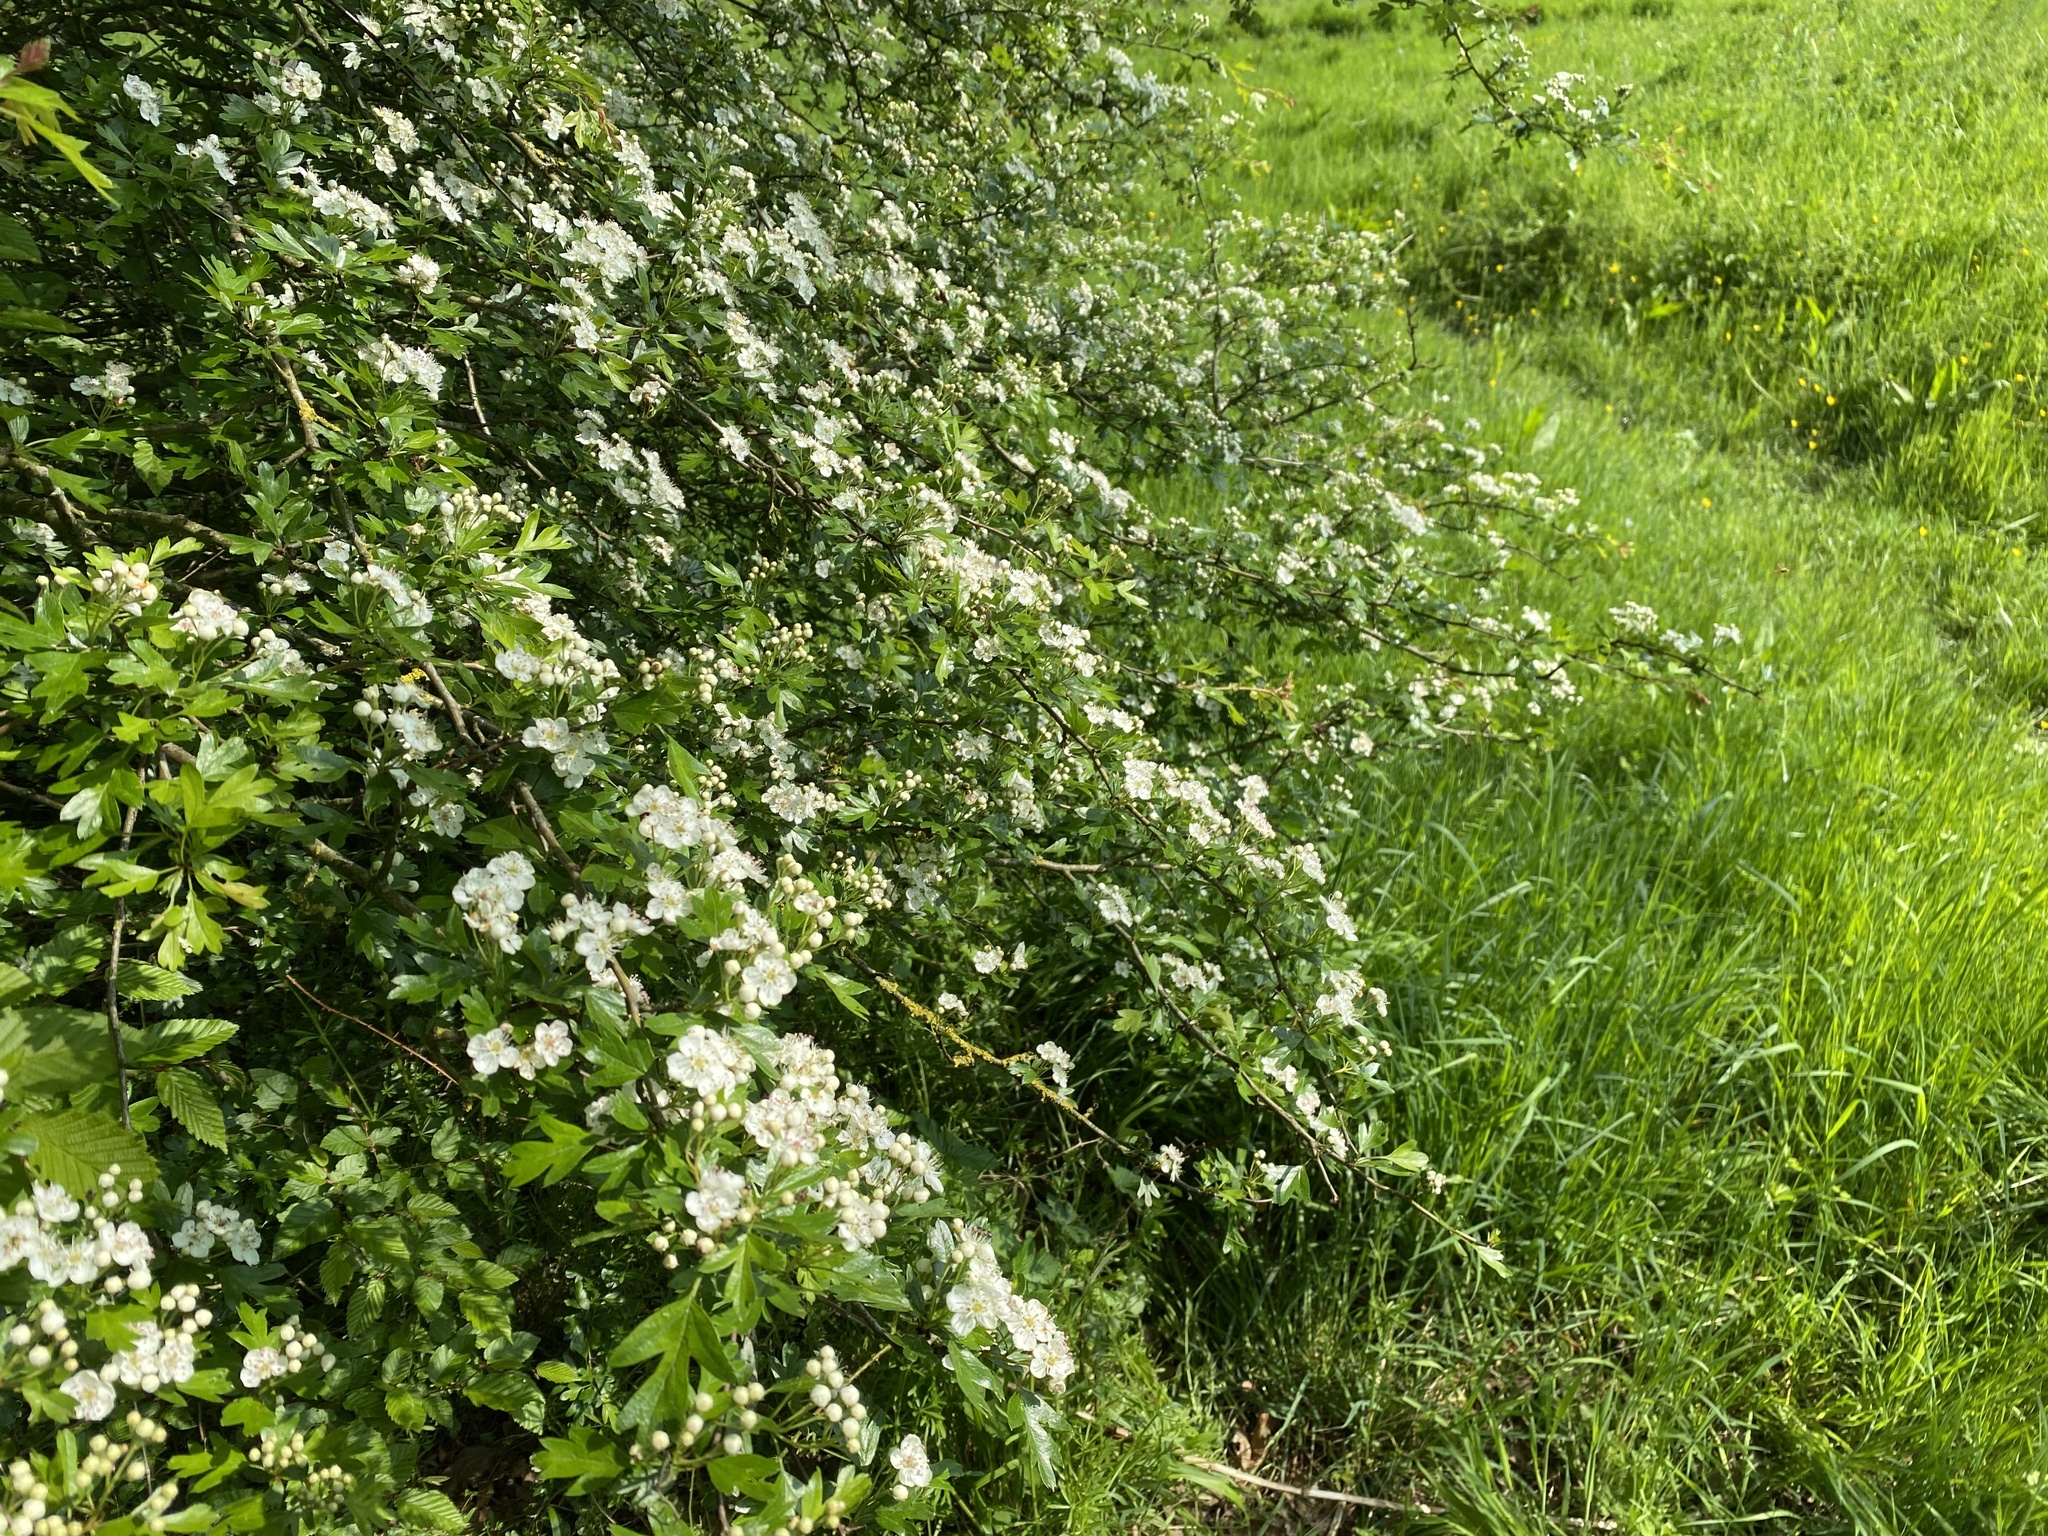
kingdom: Plantae
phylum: Tracheophyta
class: Magnoliopsida
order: Rosales
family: Rosaceae
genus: Crataegus
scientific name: Crataegus monogyna
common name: Hawthorn
